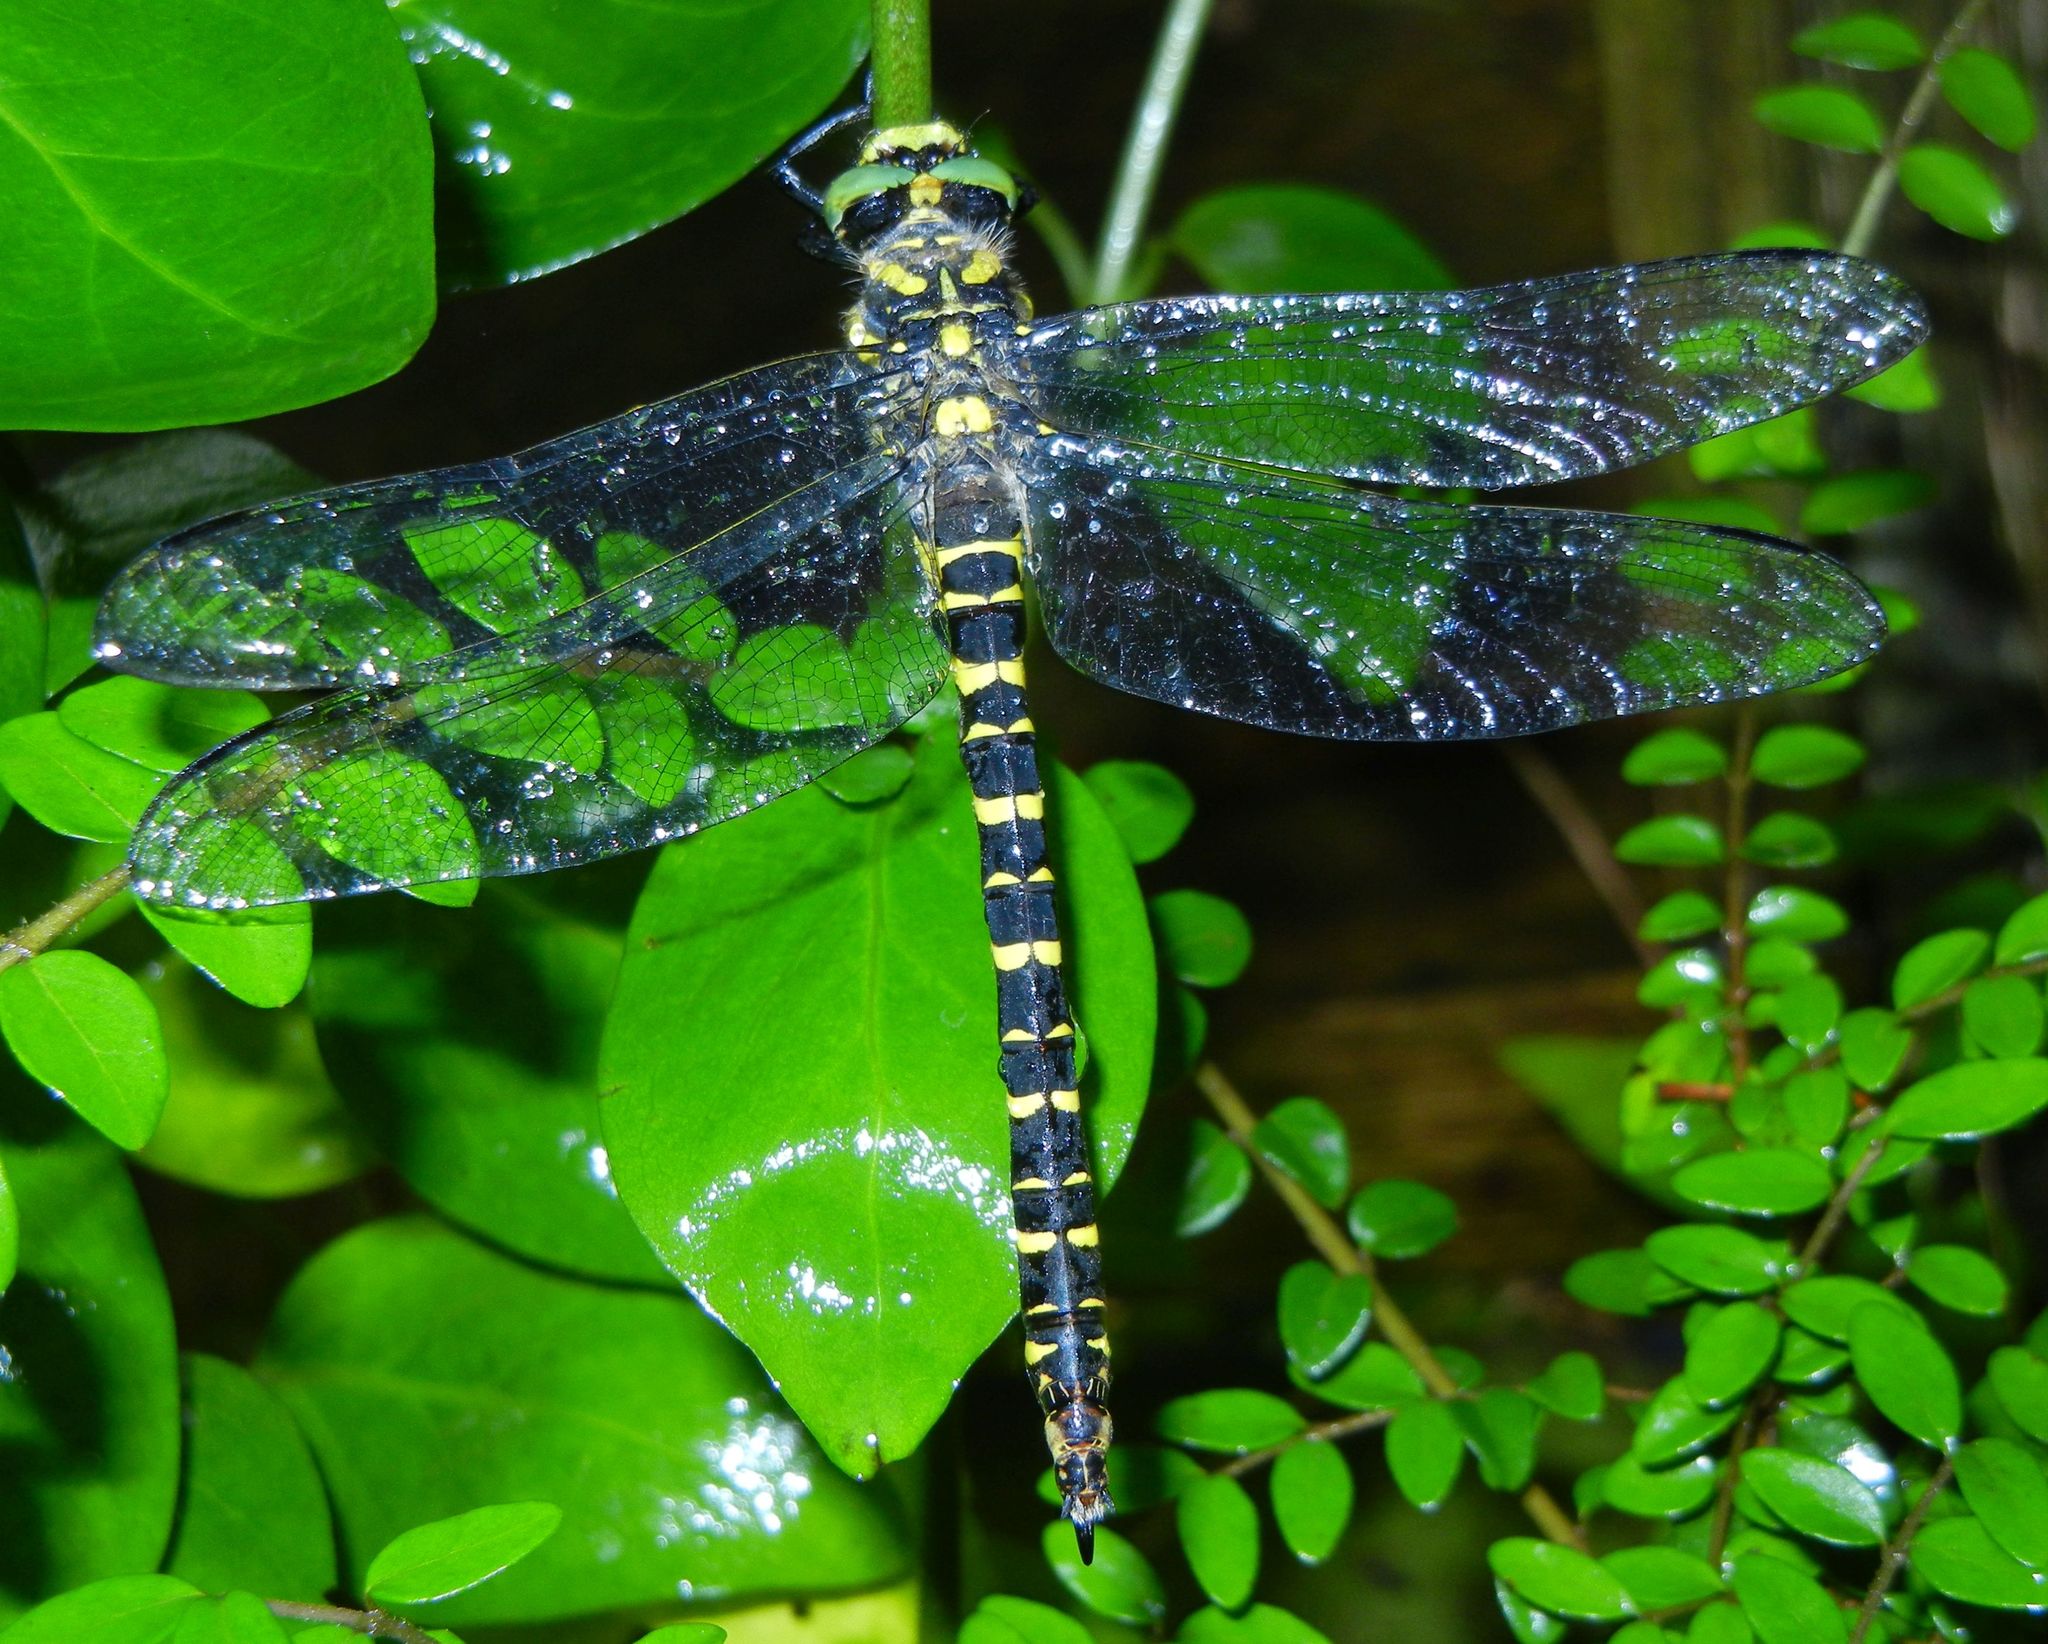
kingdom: Animalia
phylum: Arthropoda
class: Insecta
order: Odonata
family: Cordulegastridae
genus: Cordulegaster
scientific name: Cordulegaster boltonii
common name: Golden-ringed dragonfly
